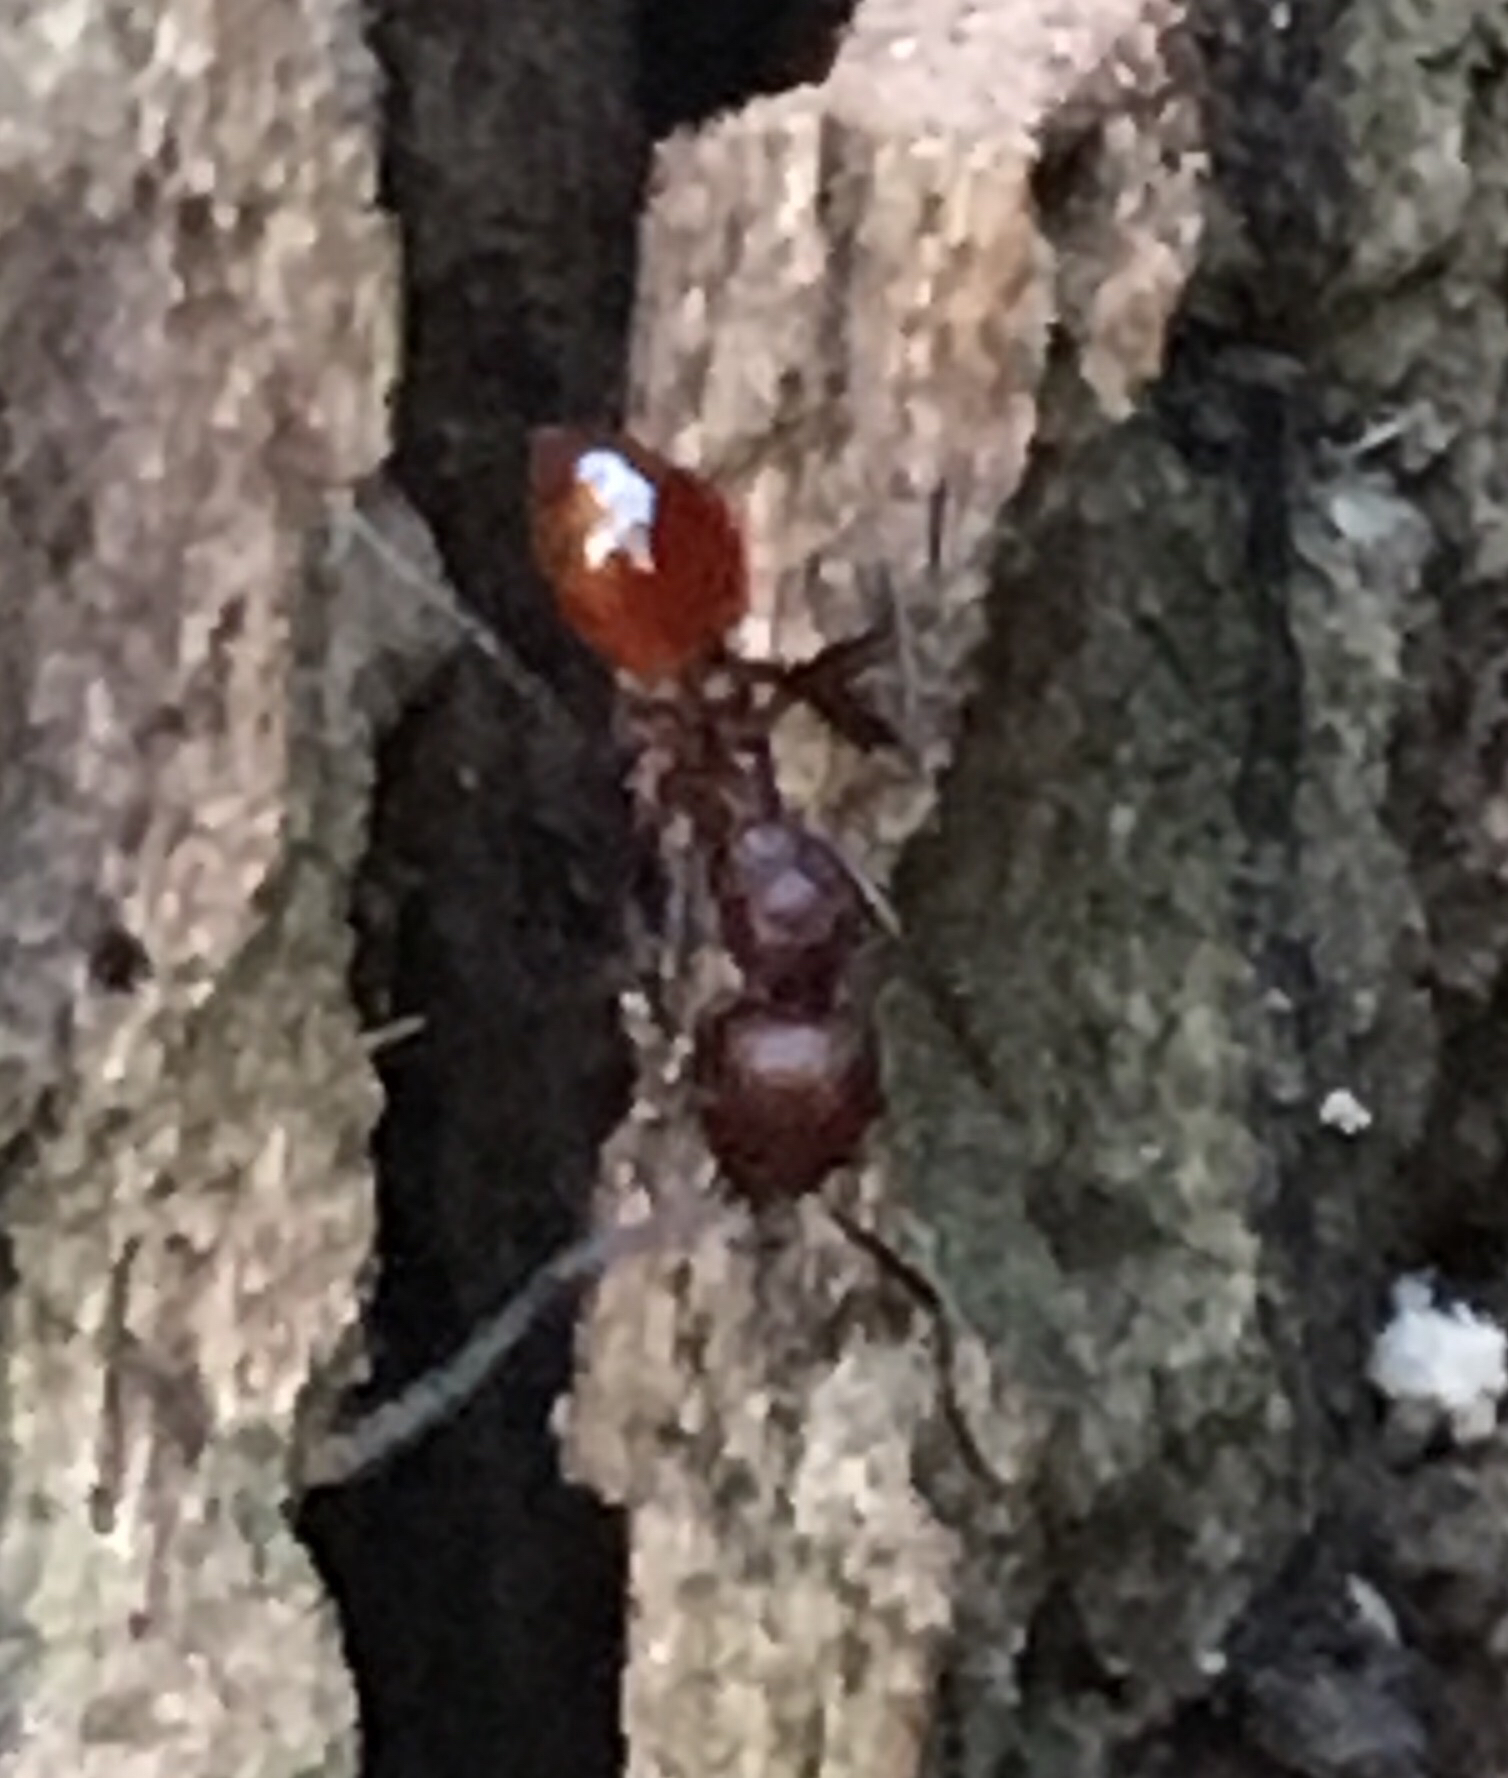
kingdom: Animalia
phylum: Arthropoda
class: Insecta
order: Hymenoptera
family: Formicidae
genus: Aphaenogaster
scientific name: Aphaenogaster tennesseensis
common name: Tennessee thread-waisted ant
